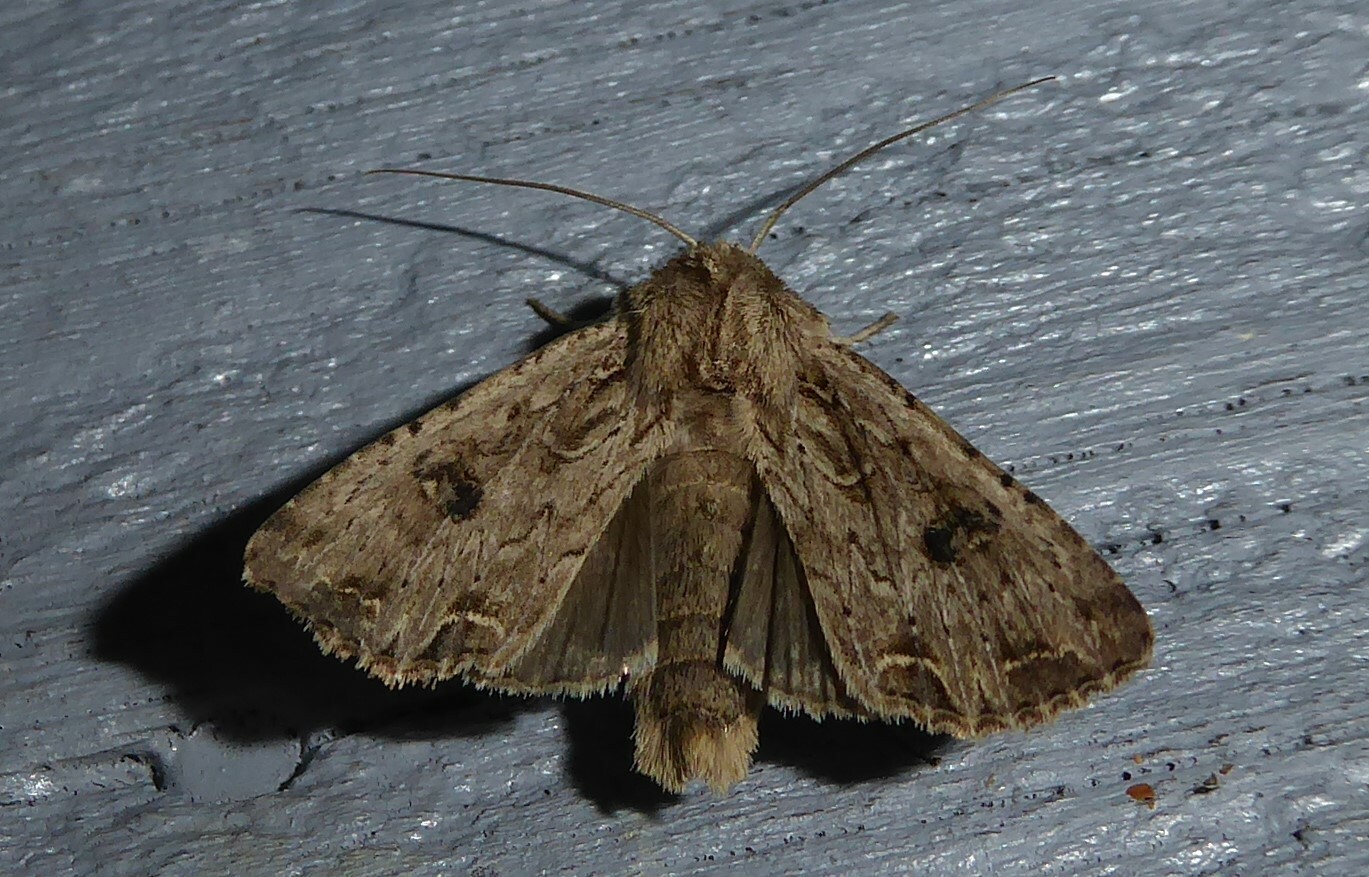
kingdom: Animalia
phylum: Arthropoda
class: Insecta
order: Lepidoptera
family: Noctuidae
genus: Ichneutica
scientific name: Ichneutica lignana
